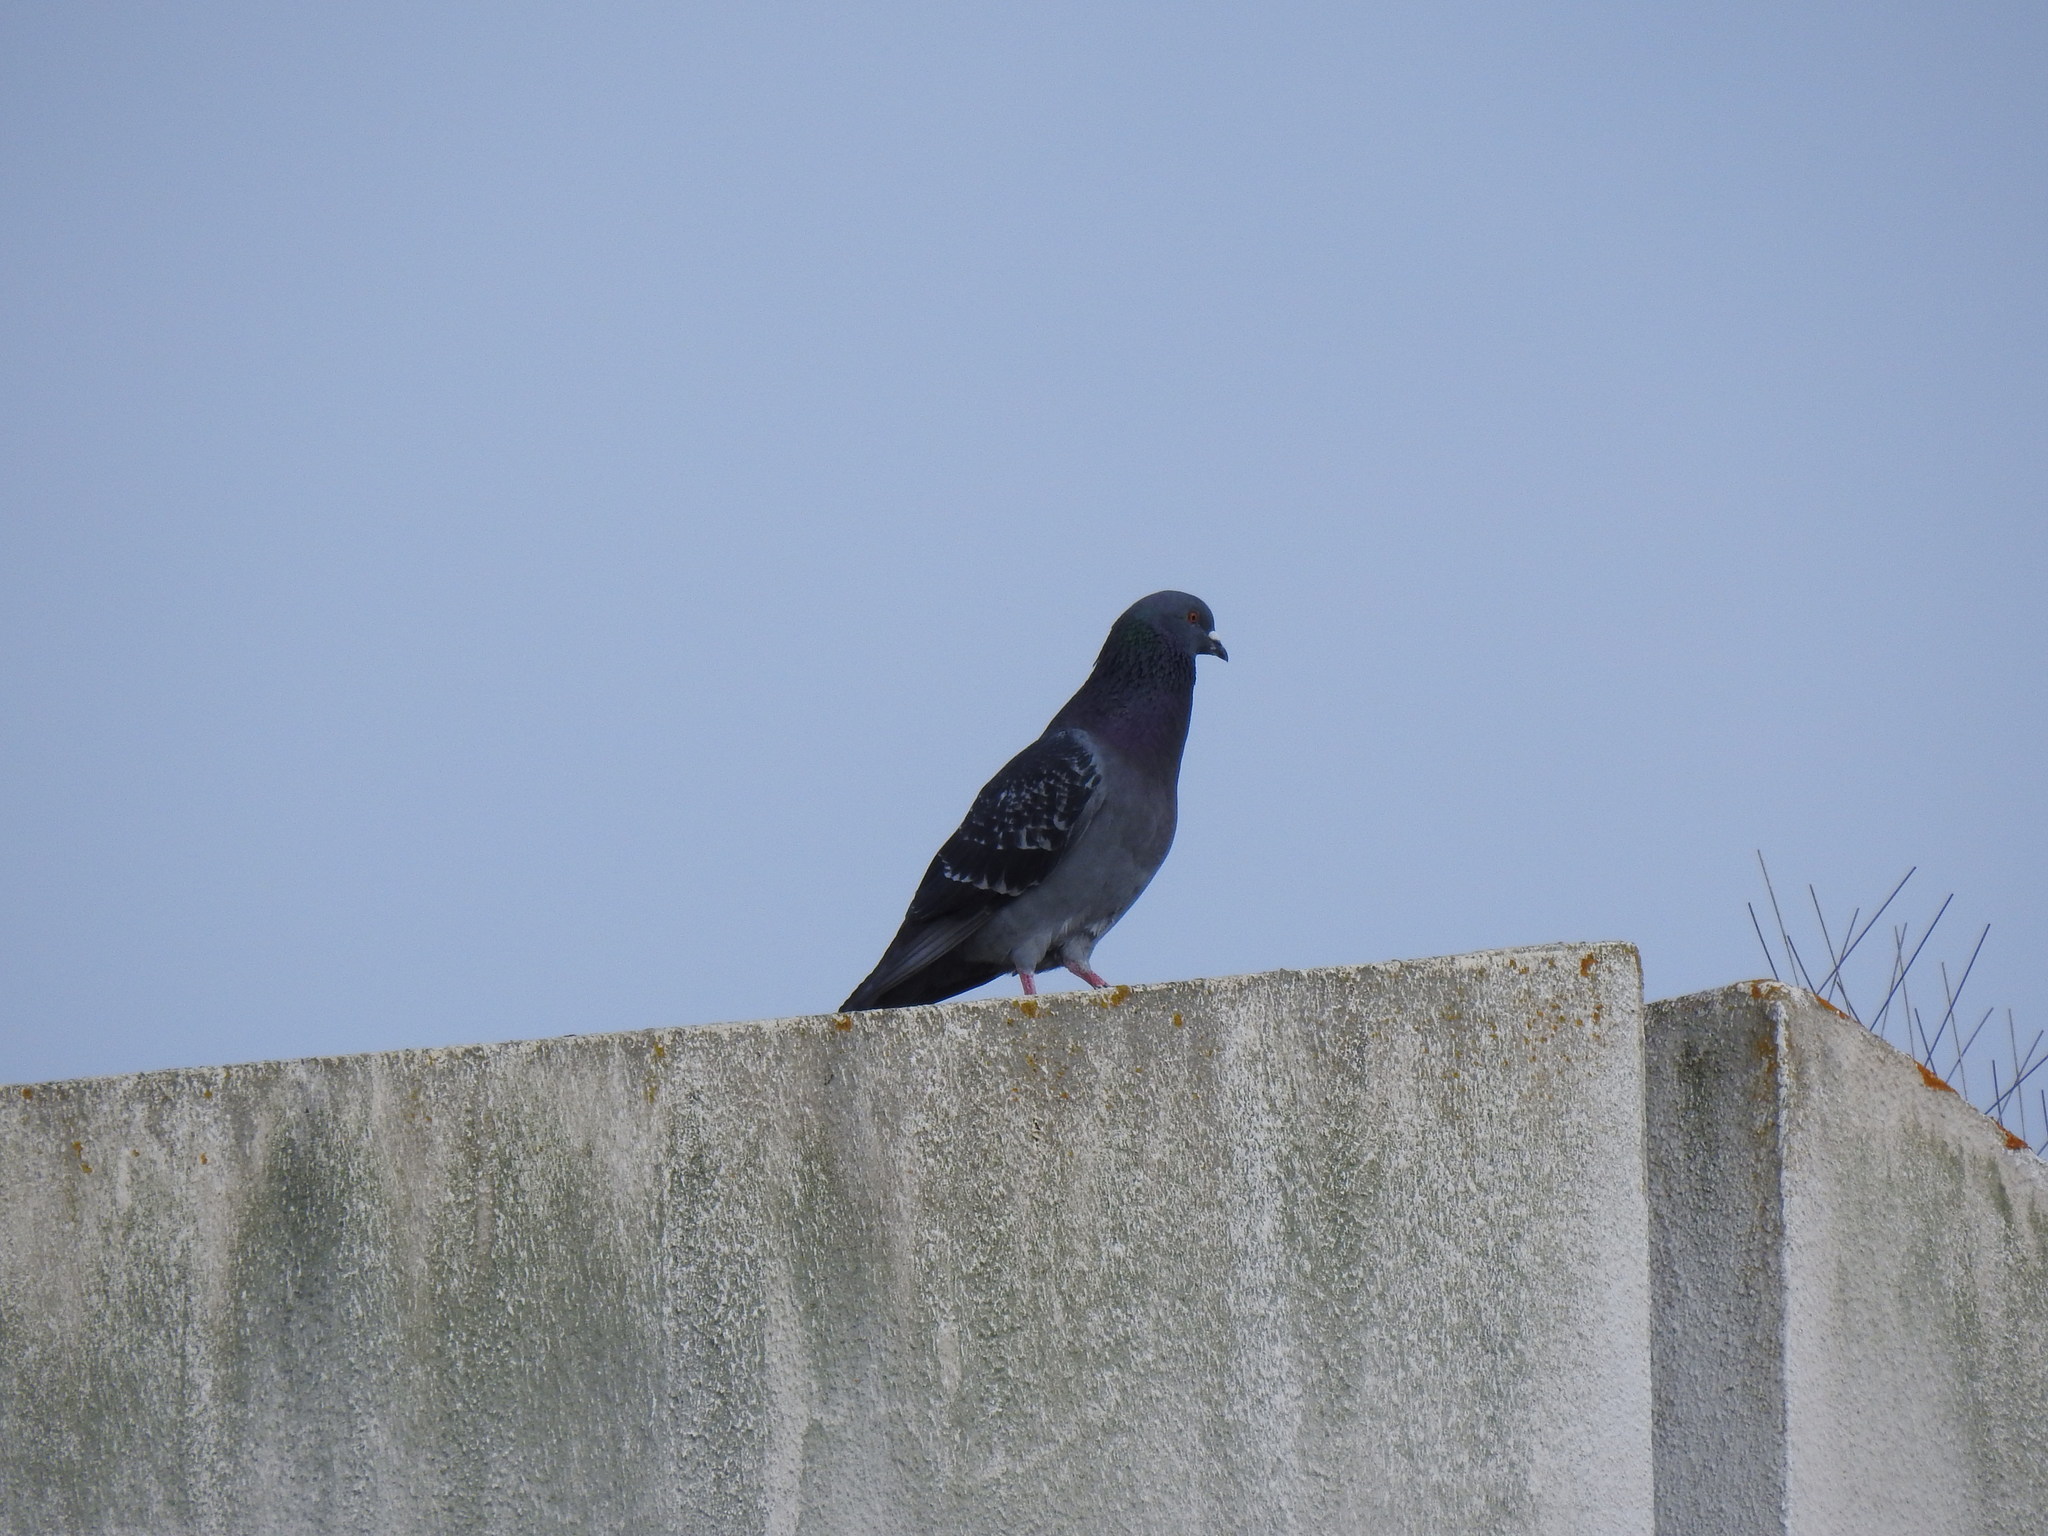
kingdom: Animalia
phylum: Chordata
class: Aves
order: Columbiformes
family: Columbidae
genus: Columba
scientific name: Columba livia
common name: Rock pigeon
